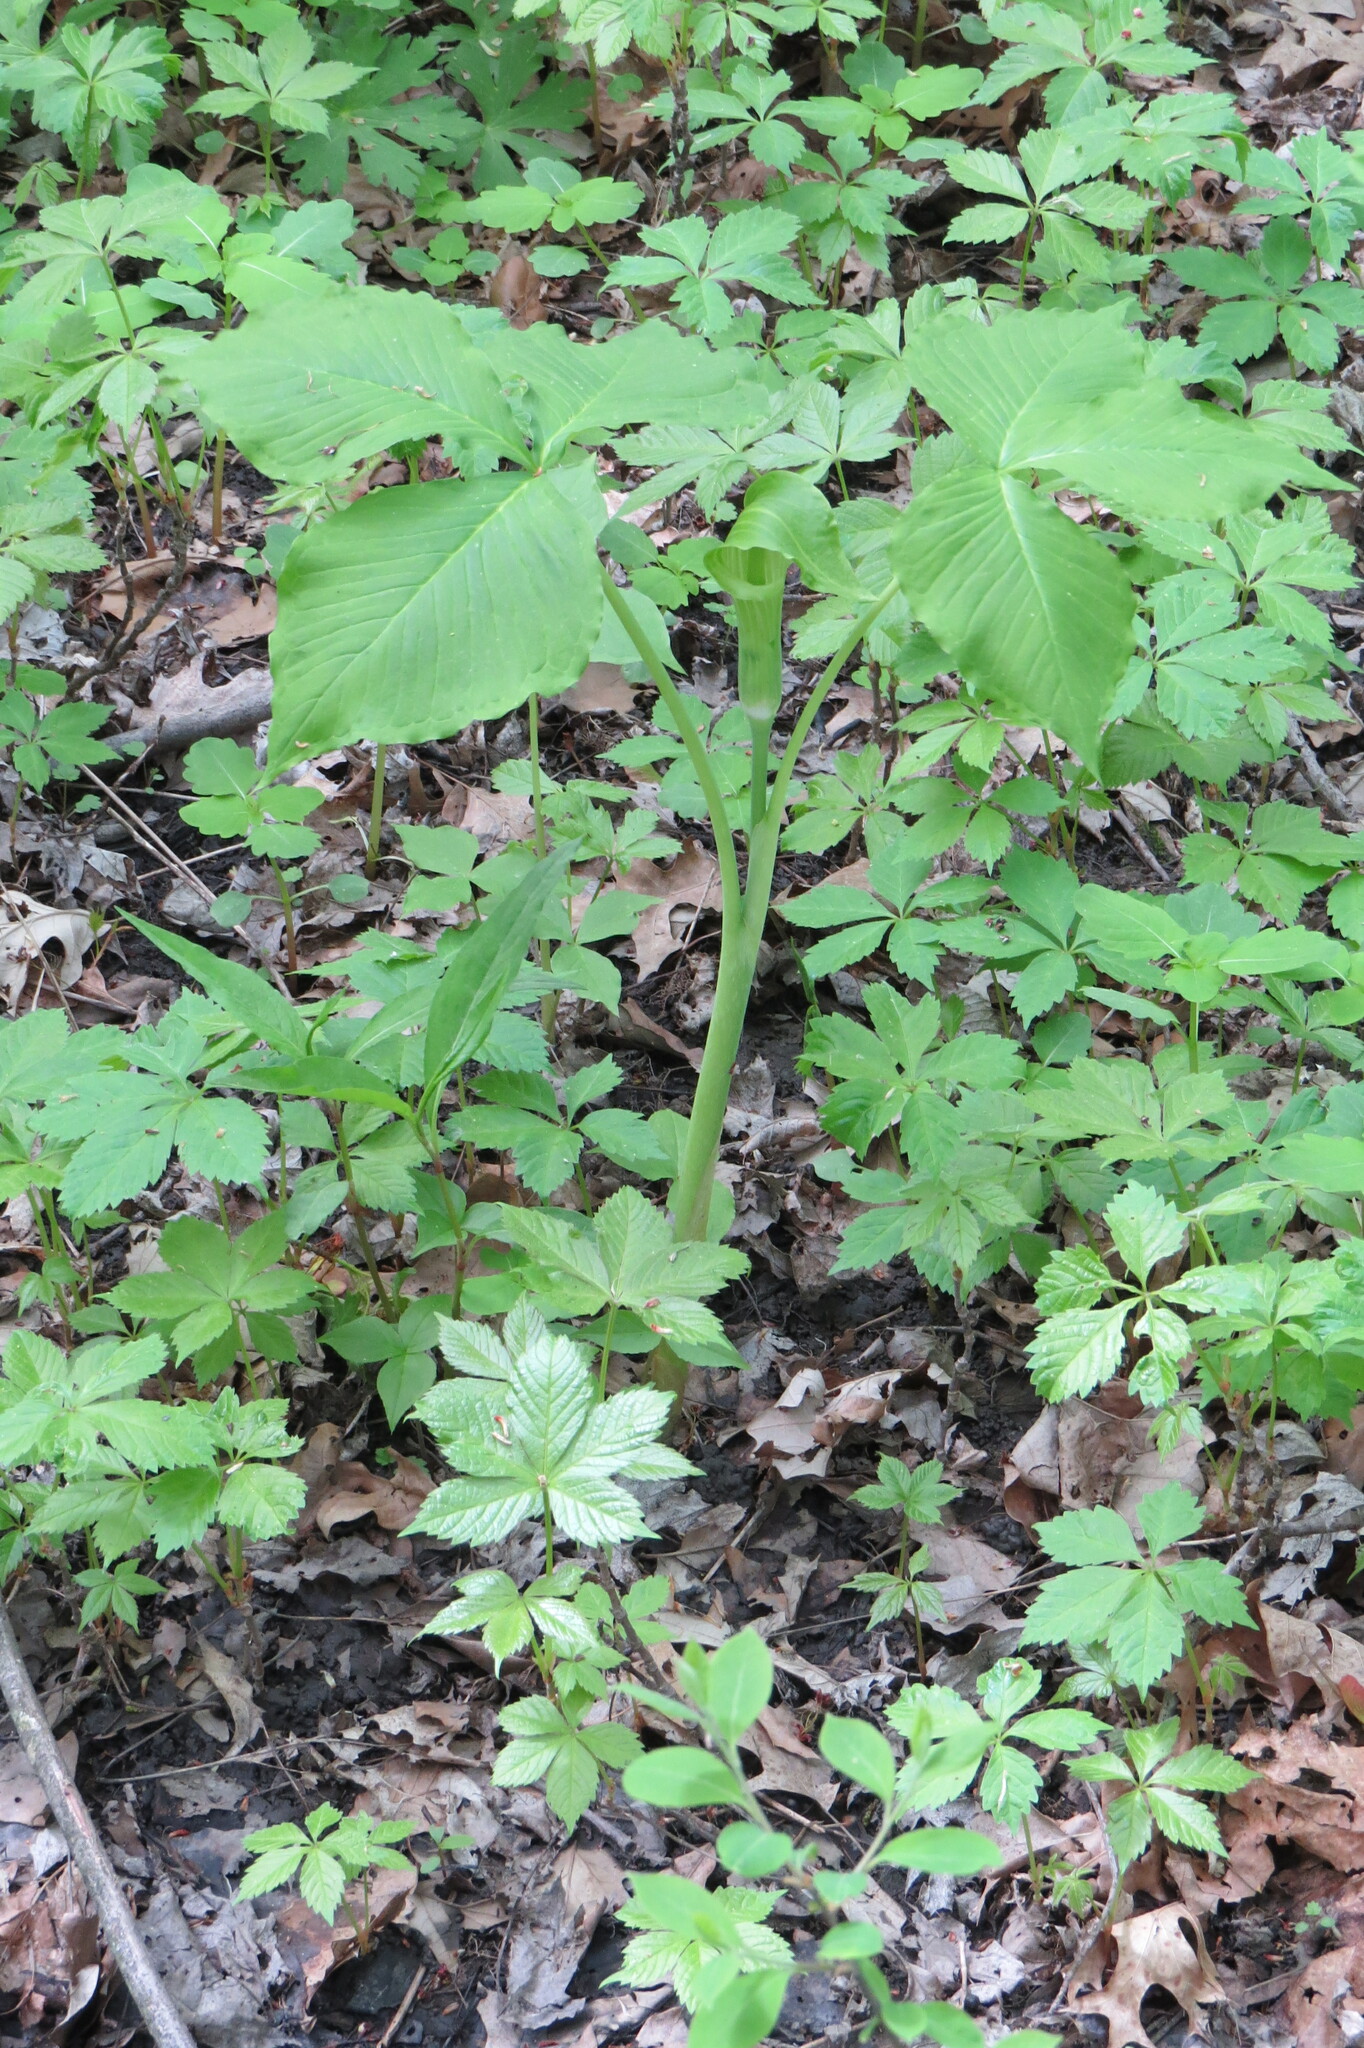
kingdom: Plantae
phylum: Tracheophyta
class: Liliopsida
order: Alismatales
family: Araceae
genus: Arisaema
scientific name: Arisaema triphyllum
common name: Jack-in-the-pulpit
